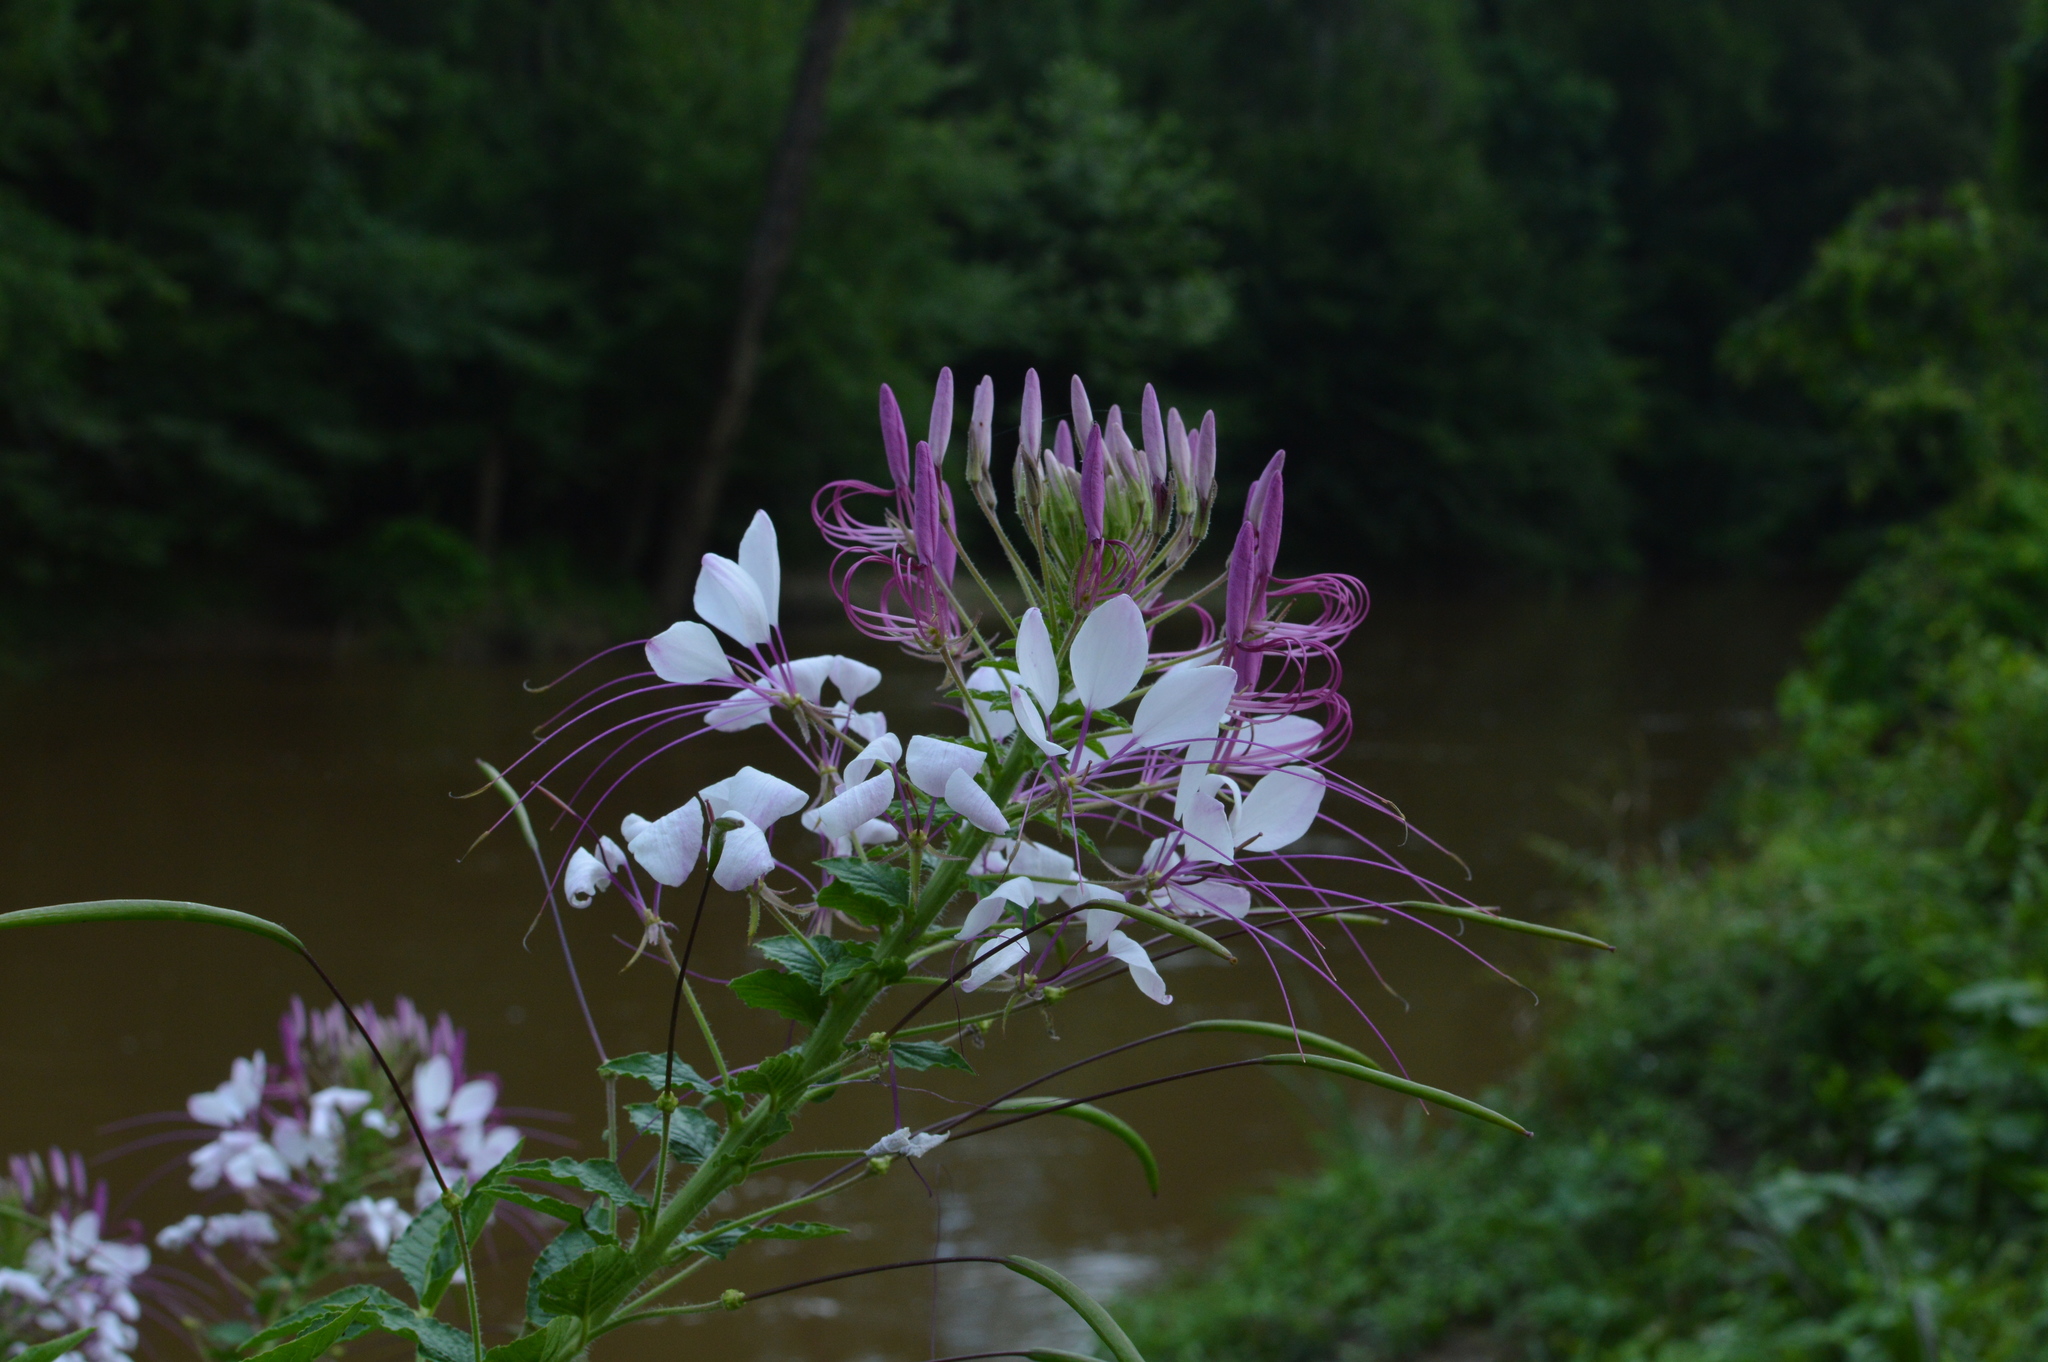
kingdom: Plantae
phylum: Tracheophyta
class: Magnoliopsida
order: Brassicales
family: Cleomaceae
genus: Tarenaya
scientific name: Tarenaya houtteana
